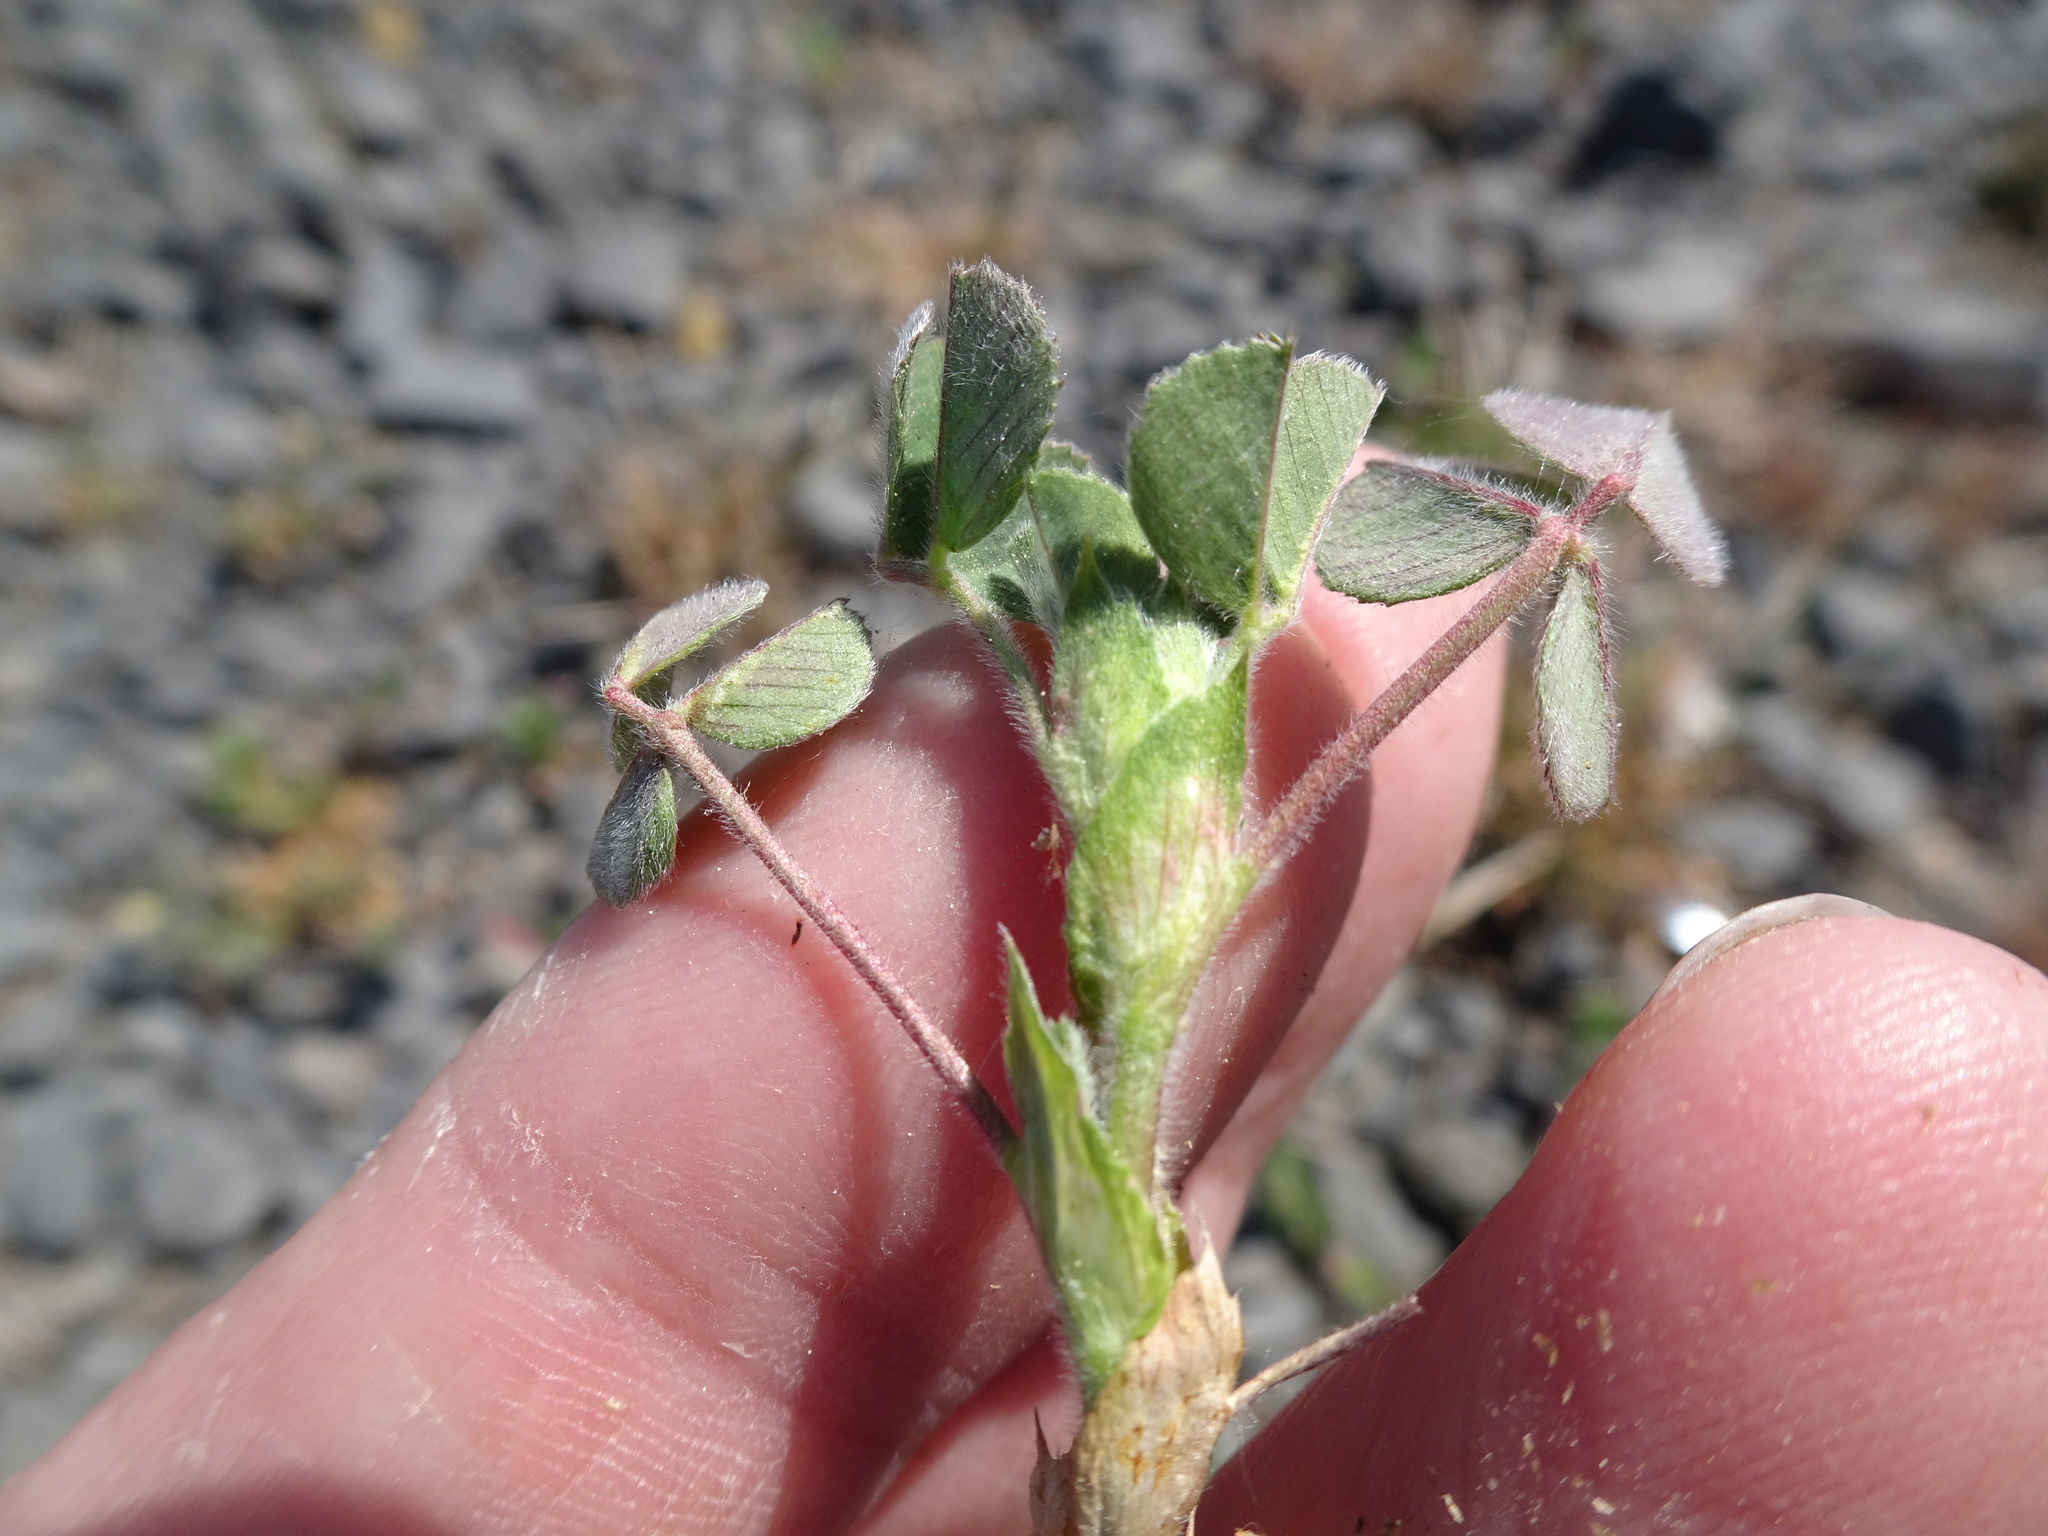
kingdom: Plantae
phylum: Tracheophyta
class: Magnoliopsida
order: Fabales
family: Fabaceae
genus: Medicago
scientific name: Medicago lupulina
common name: Black medick
